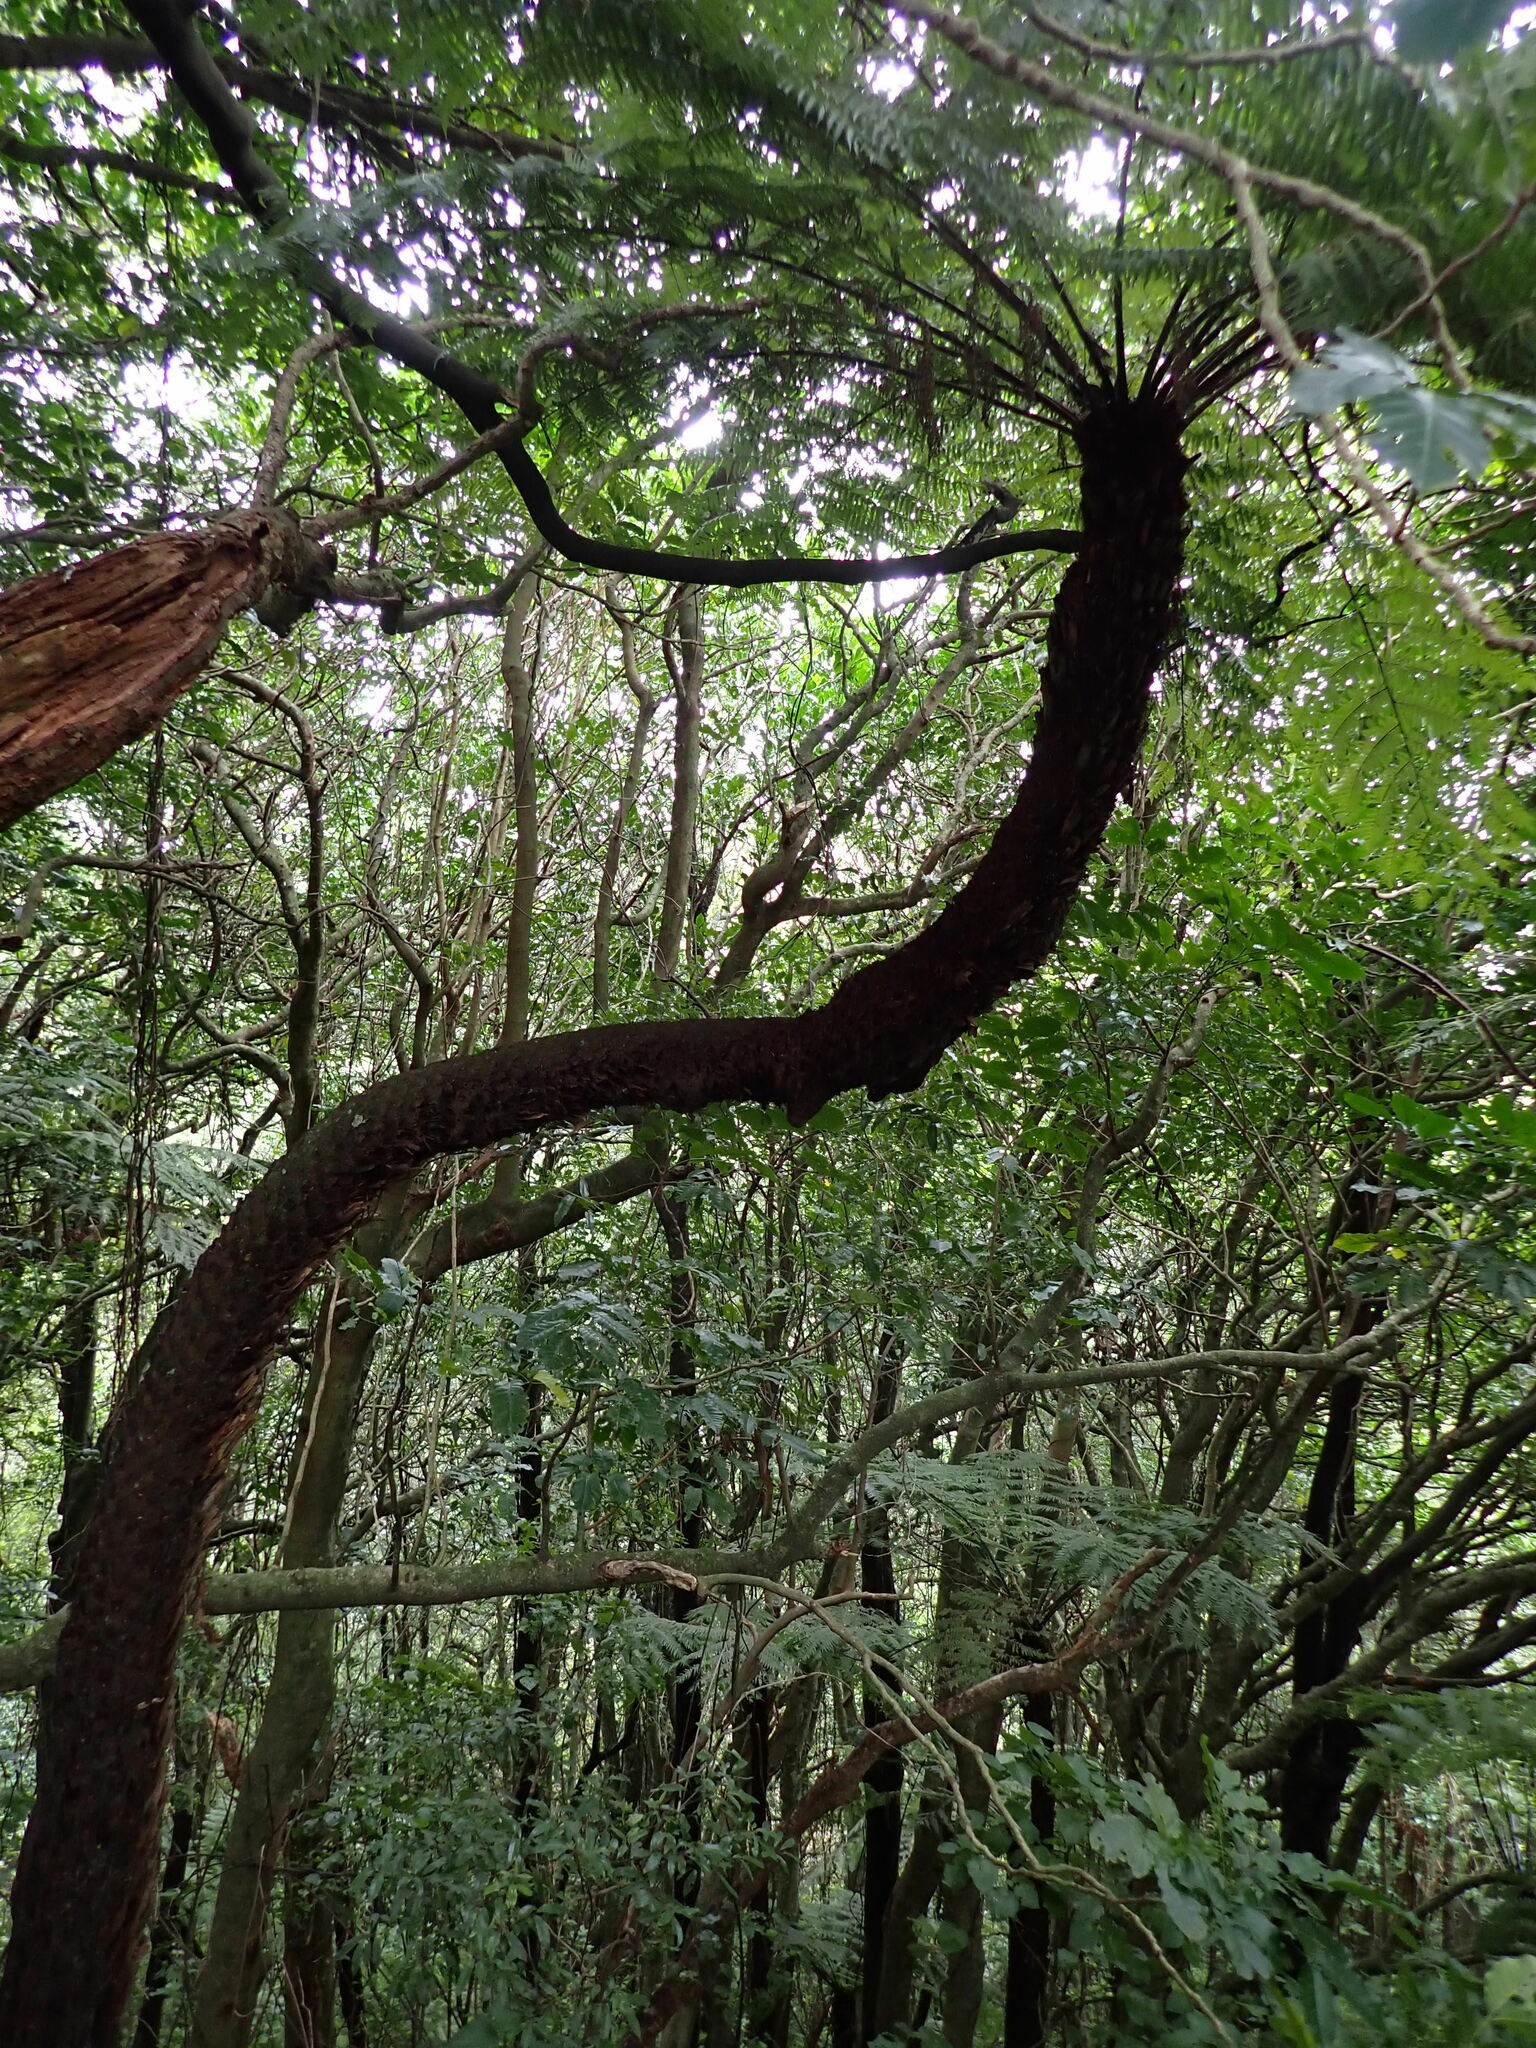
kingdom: Plantae
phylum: Tracheophyta
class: Polypodiopsida
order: Cyatheales
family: Cyatheaceae
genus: Alsophila
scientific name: Alsophila dealbata
